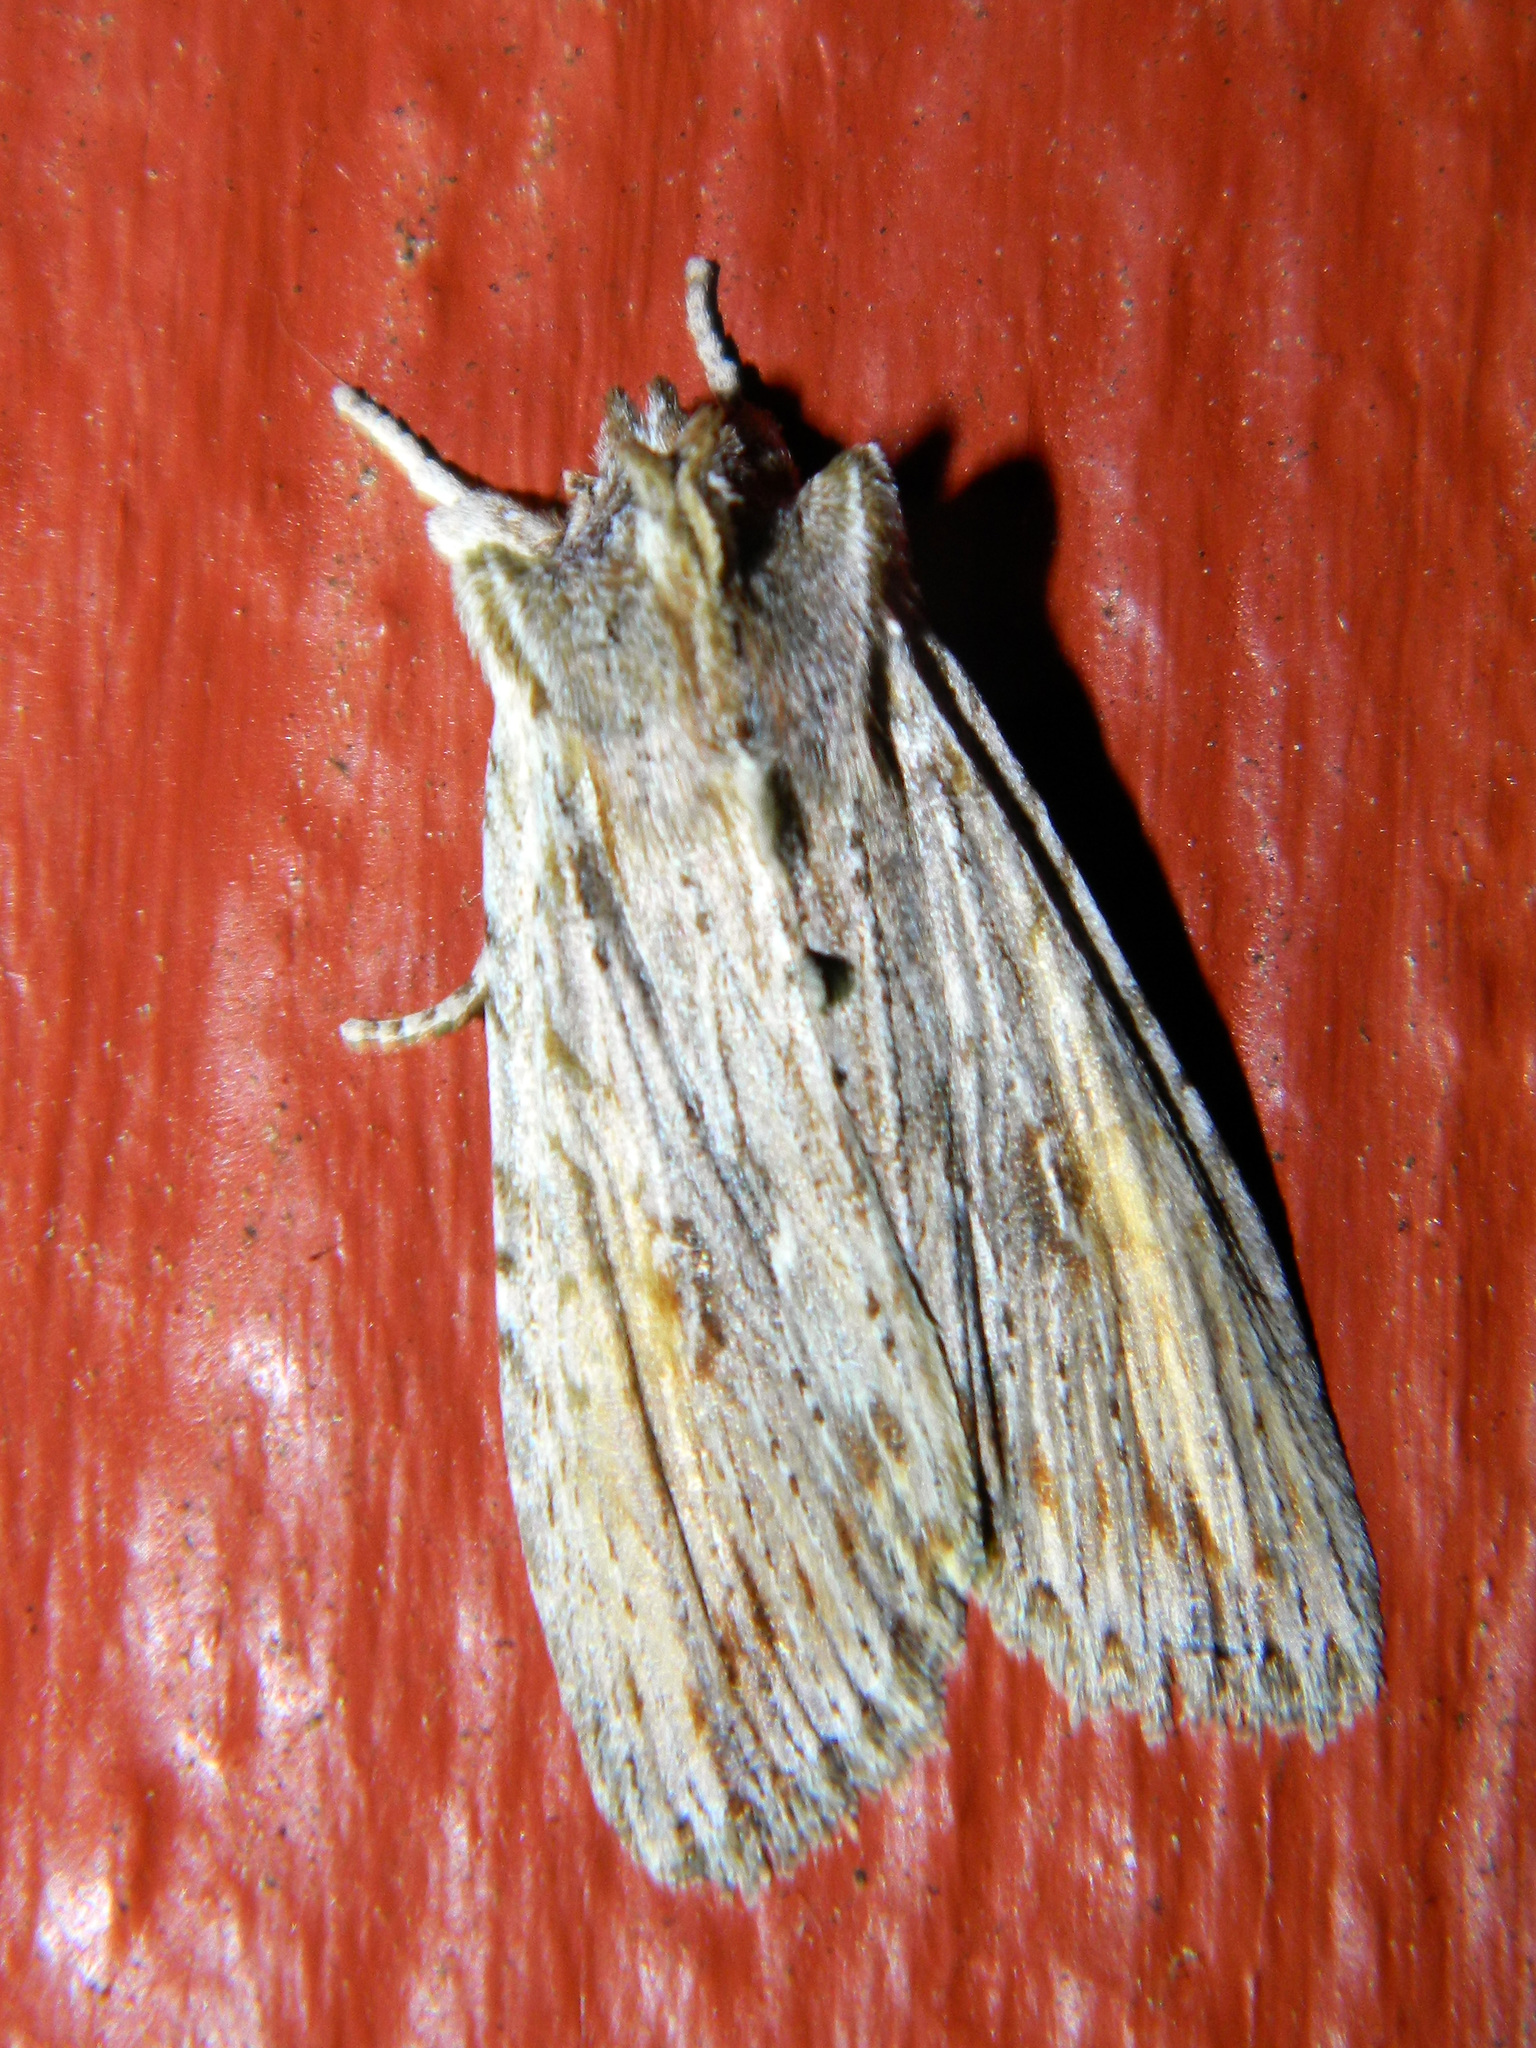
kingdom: Animalia
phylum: Arthropoda
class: Insecta
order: Lepidoptera
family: Noctuidae
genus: Lithophane
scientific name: Lithophane amanda
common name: Amanda's pinion moth
